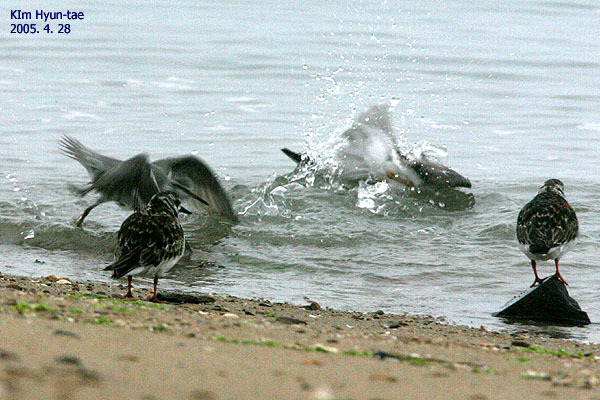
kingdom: Animalia
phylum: Chordata
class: Aves
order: Charadriiformes
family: Scolopacidae
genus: Arenaria
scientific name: Arenaria interpres
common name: Ruddy turnstone
